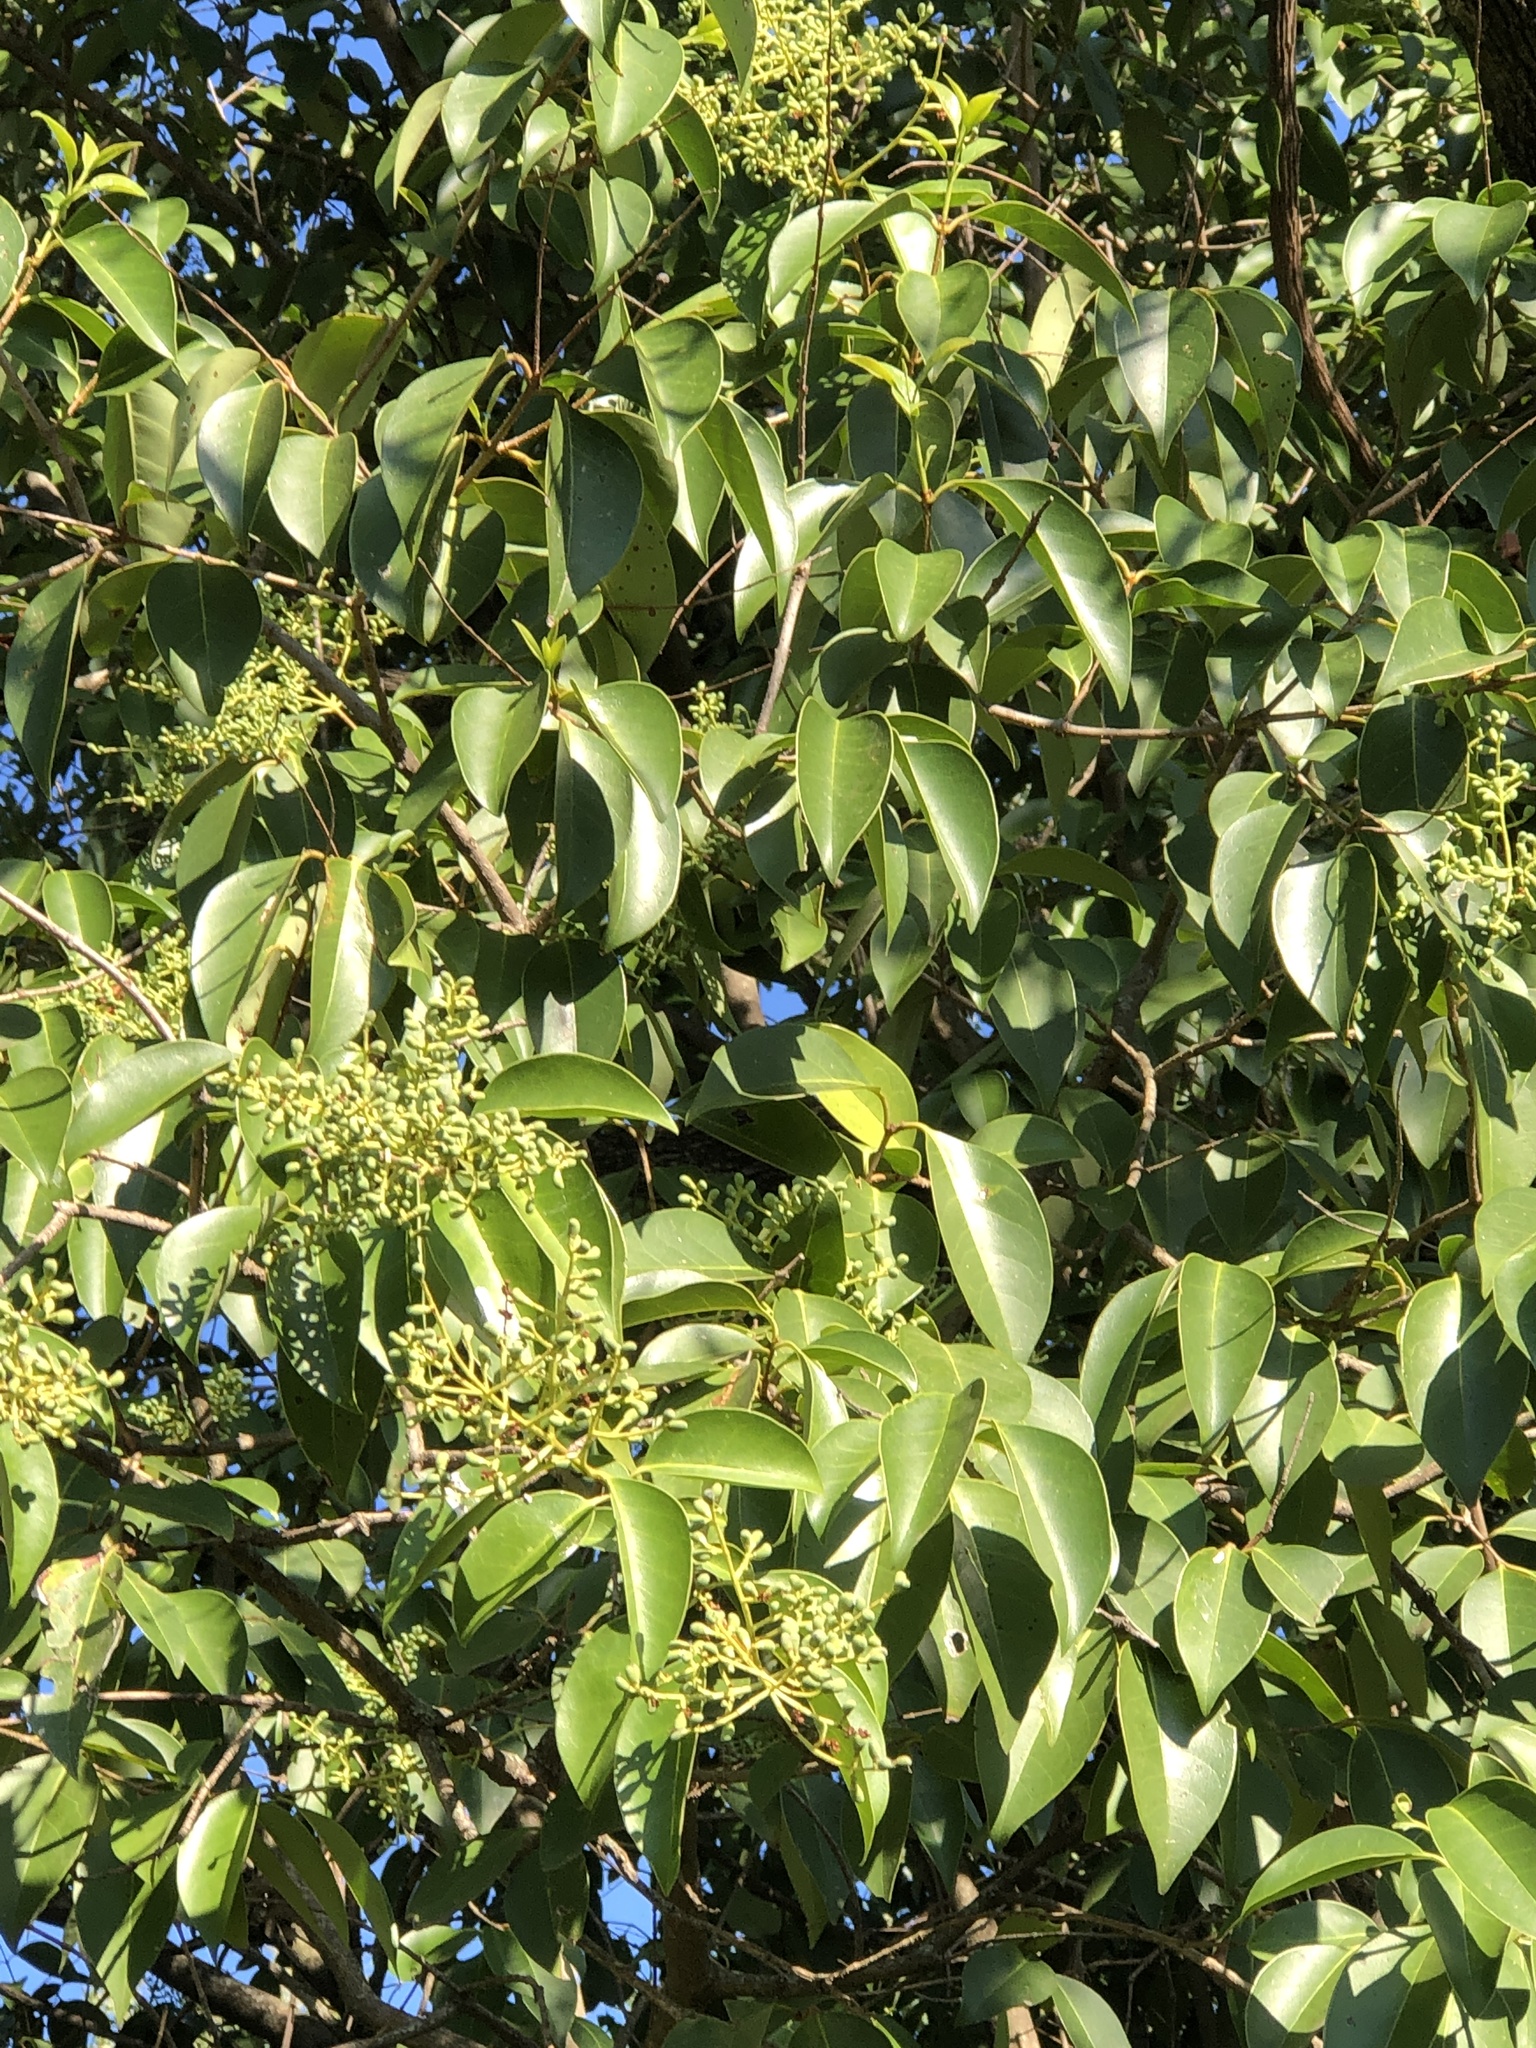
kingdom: Plantae
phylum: Tracheophyta
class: Magnoliopsida
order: Lamiales
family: Oleaceae
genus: Ligustrum
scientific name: Ligustrum lucidum
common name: Glossy privet
